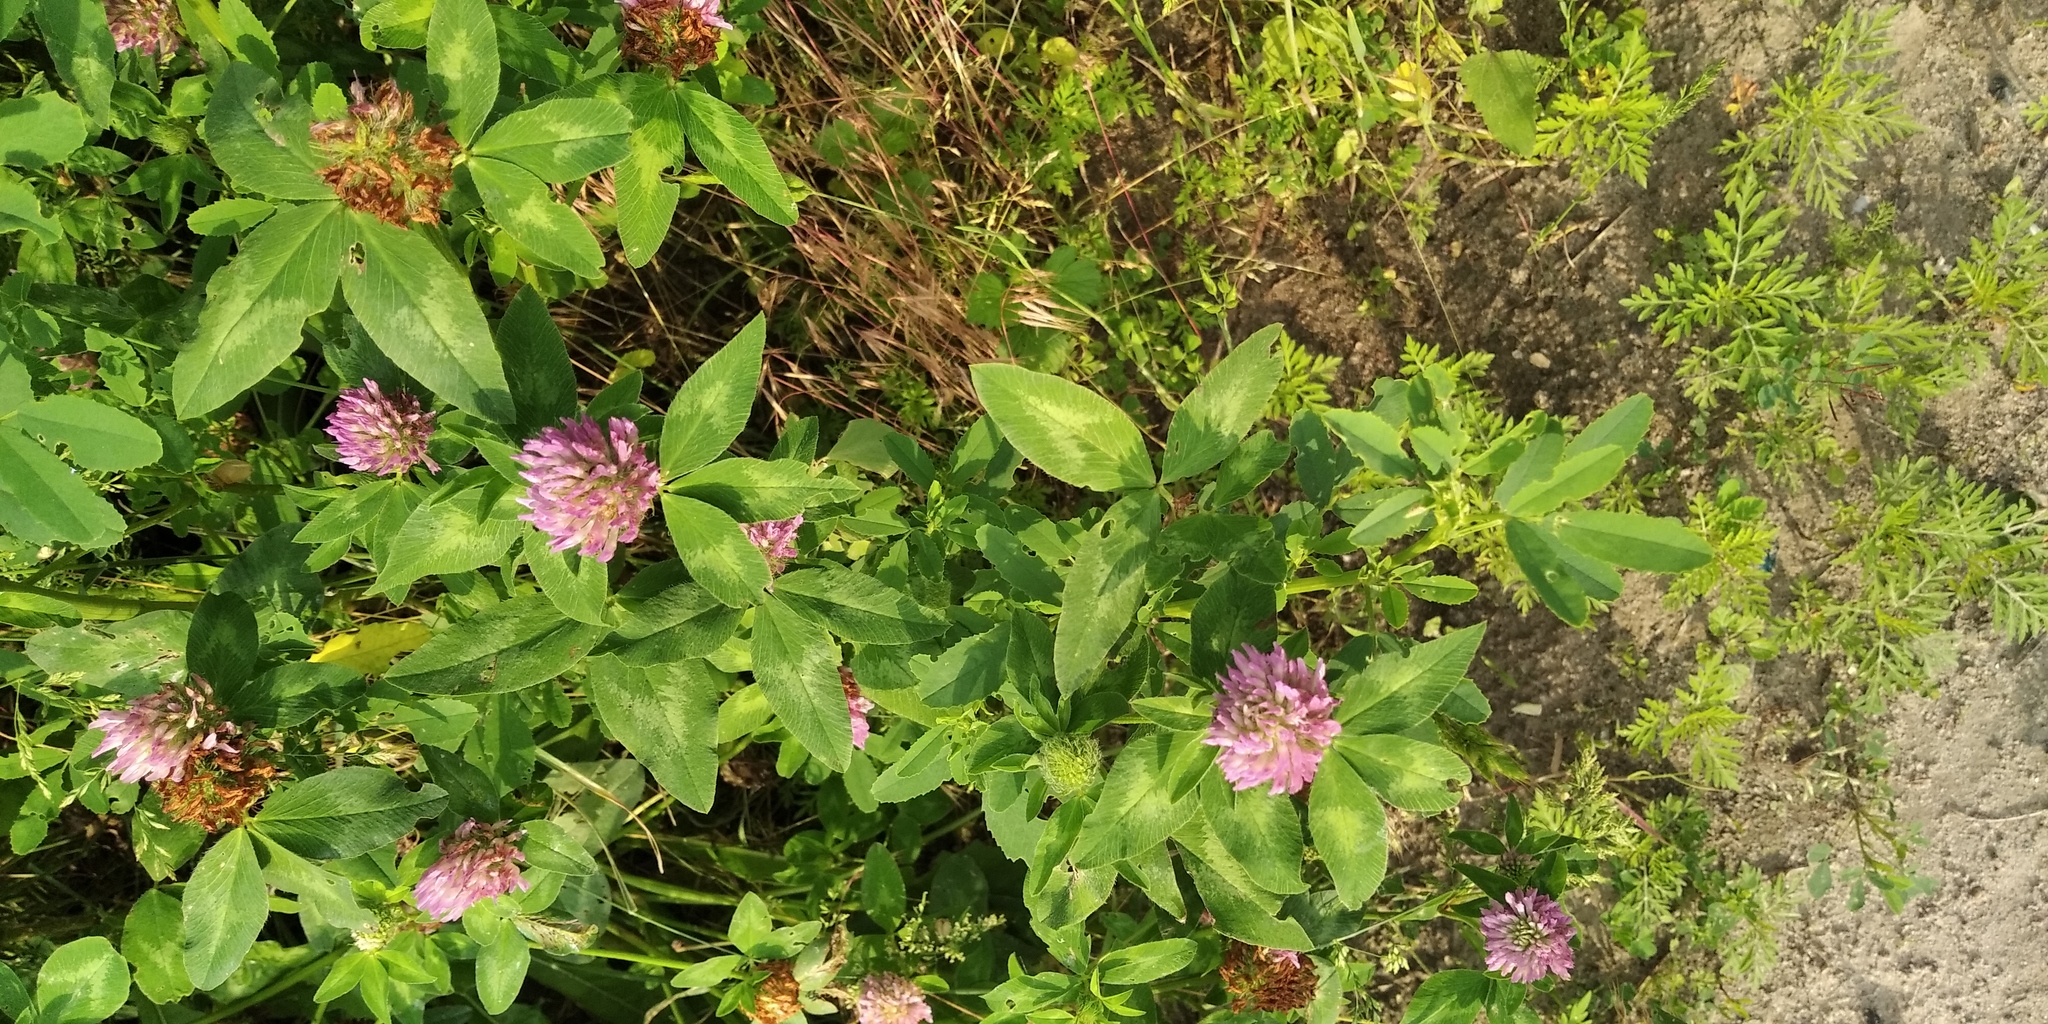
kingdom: Plantae
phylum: Tracheophyta
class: Magnoliopsida
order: Fabales
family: Fabaceae
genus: Trifolium
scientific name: Trifolium pratense
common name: Red clover
